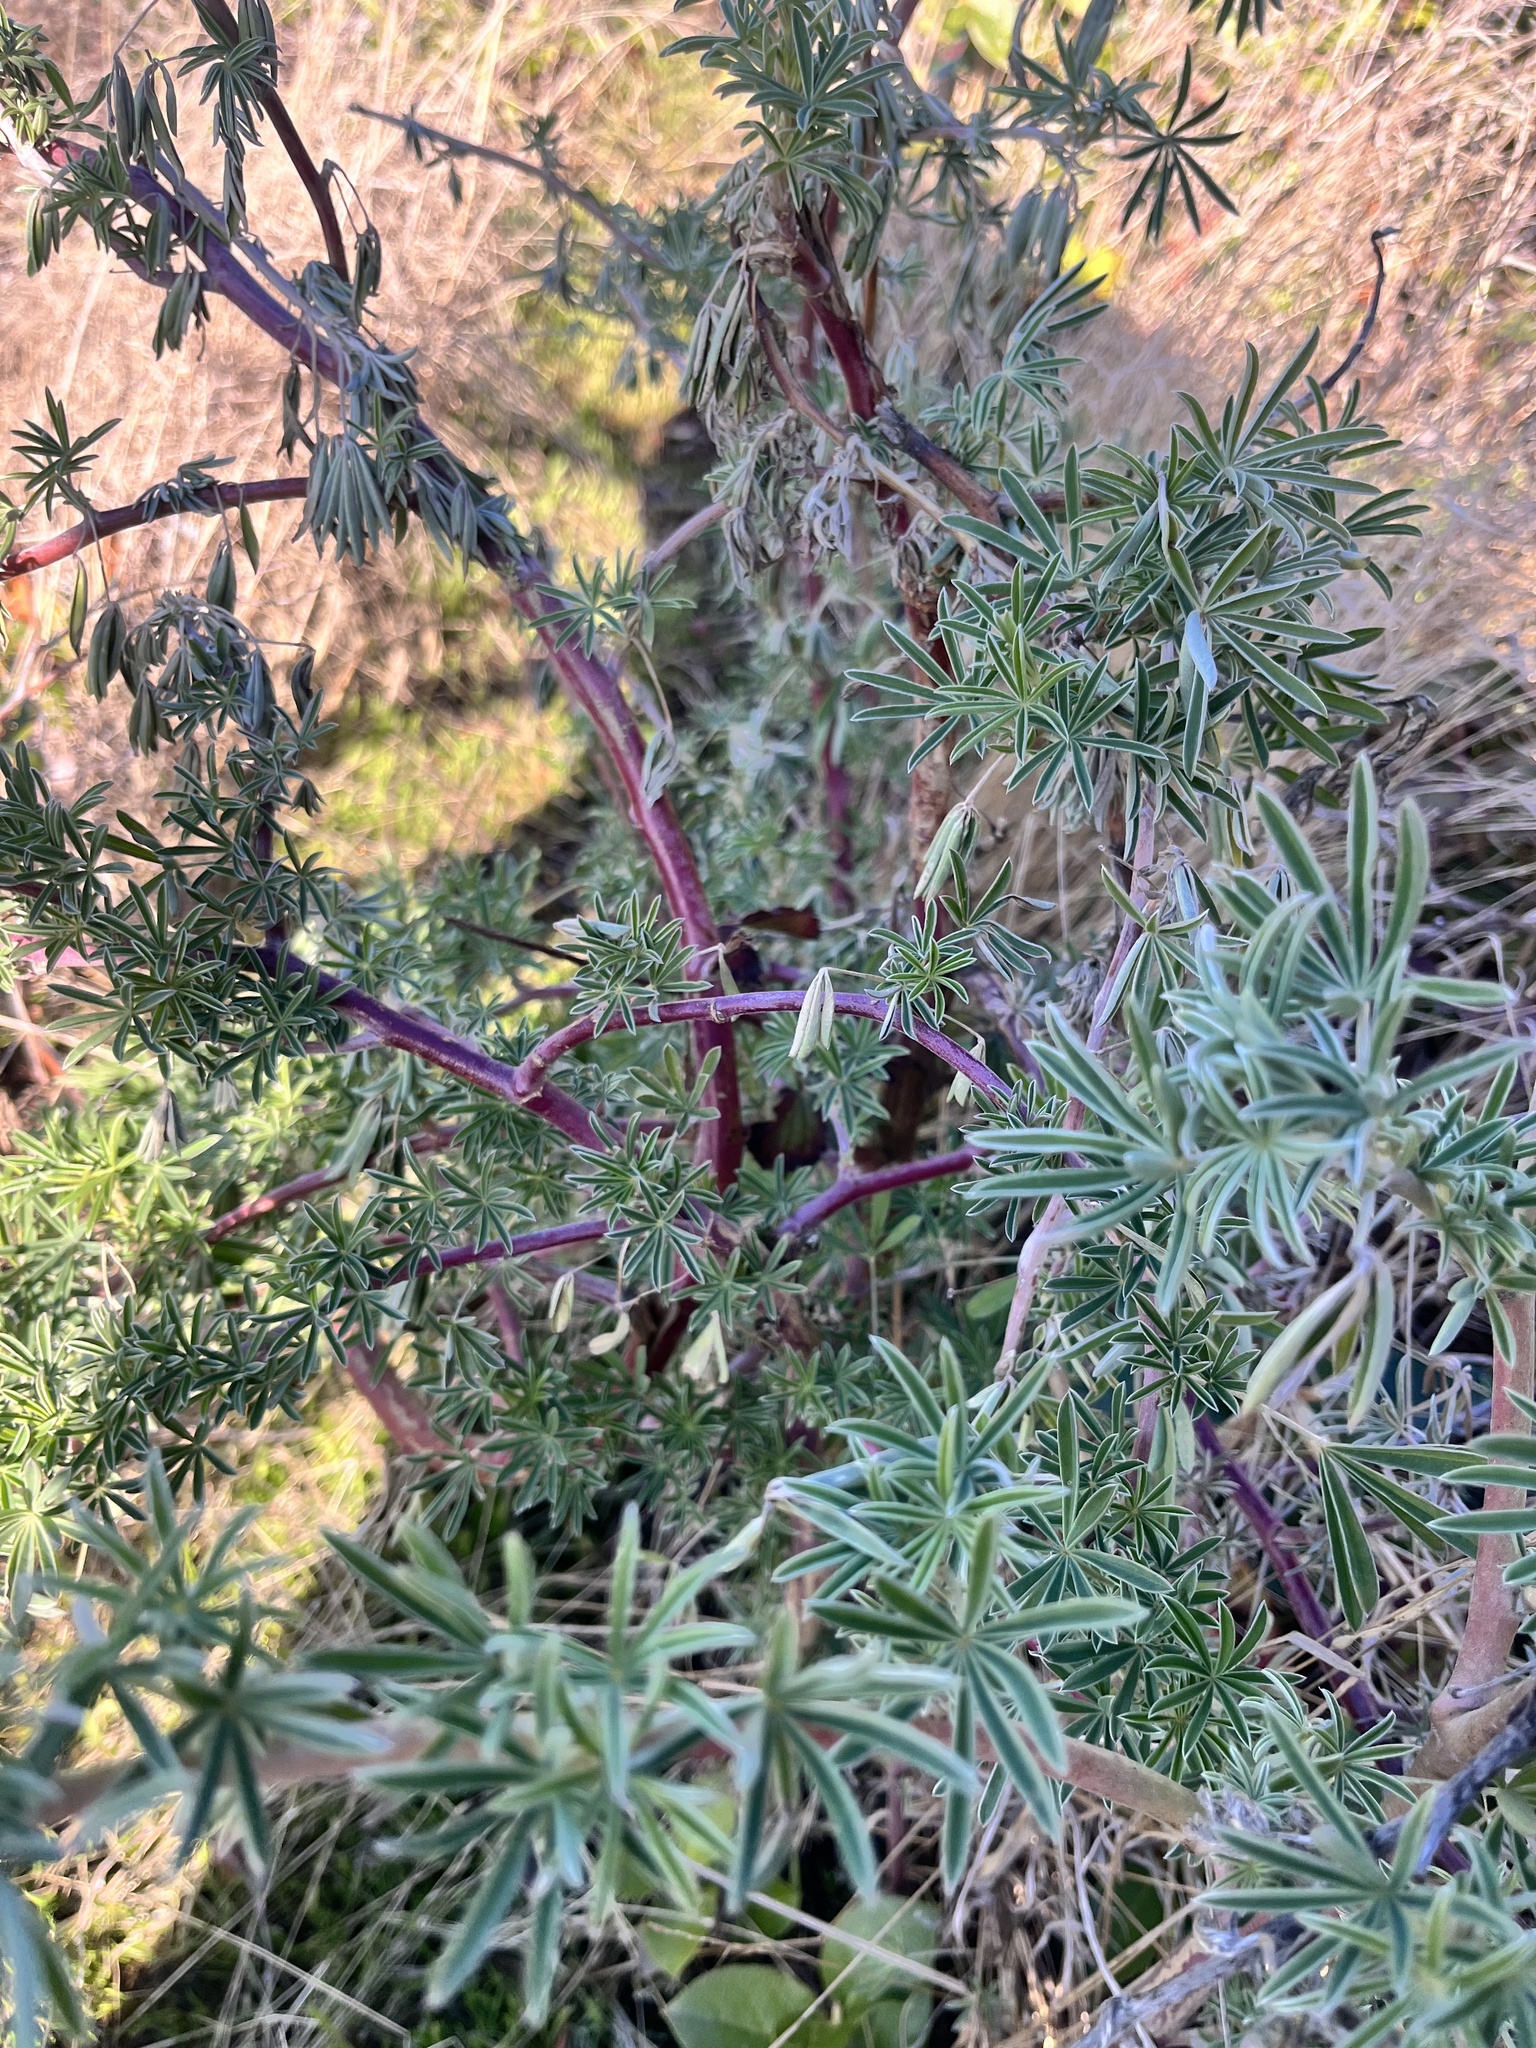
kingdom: Plantae
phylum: Tracheophyta
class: Magnoliopsida
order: Fabales
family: Fabaceae
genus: Lupinus
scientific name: Lupinus arboreus
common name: Yellow bush lupine
